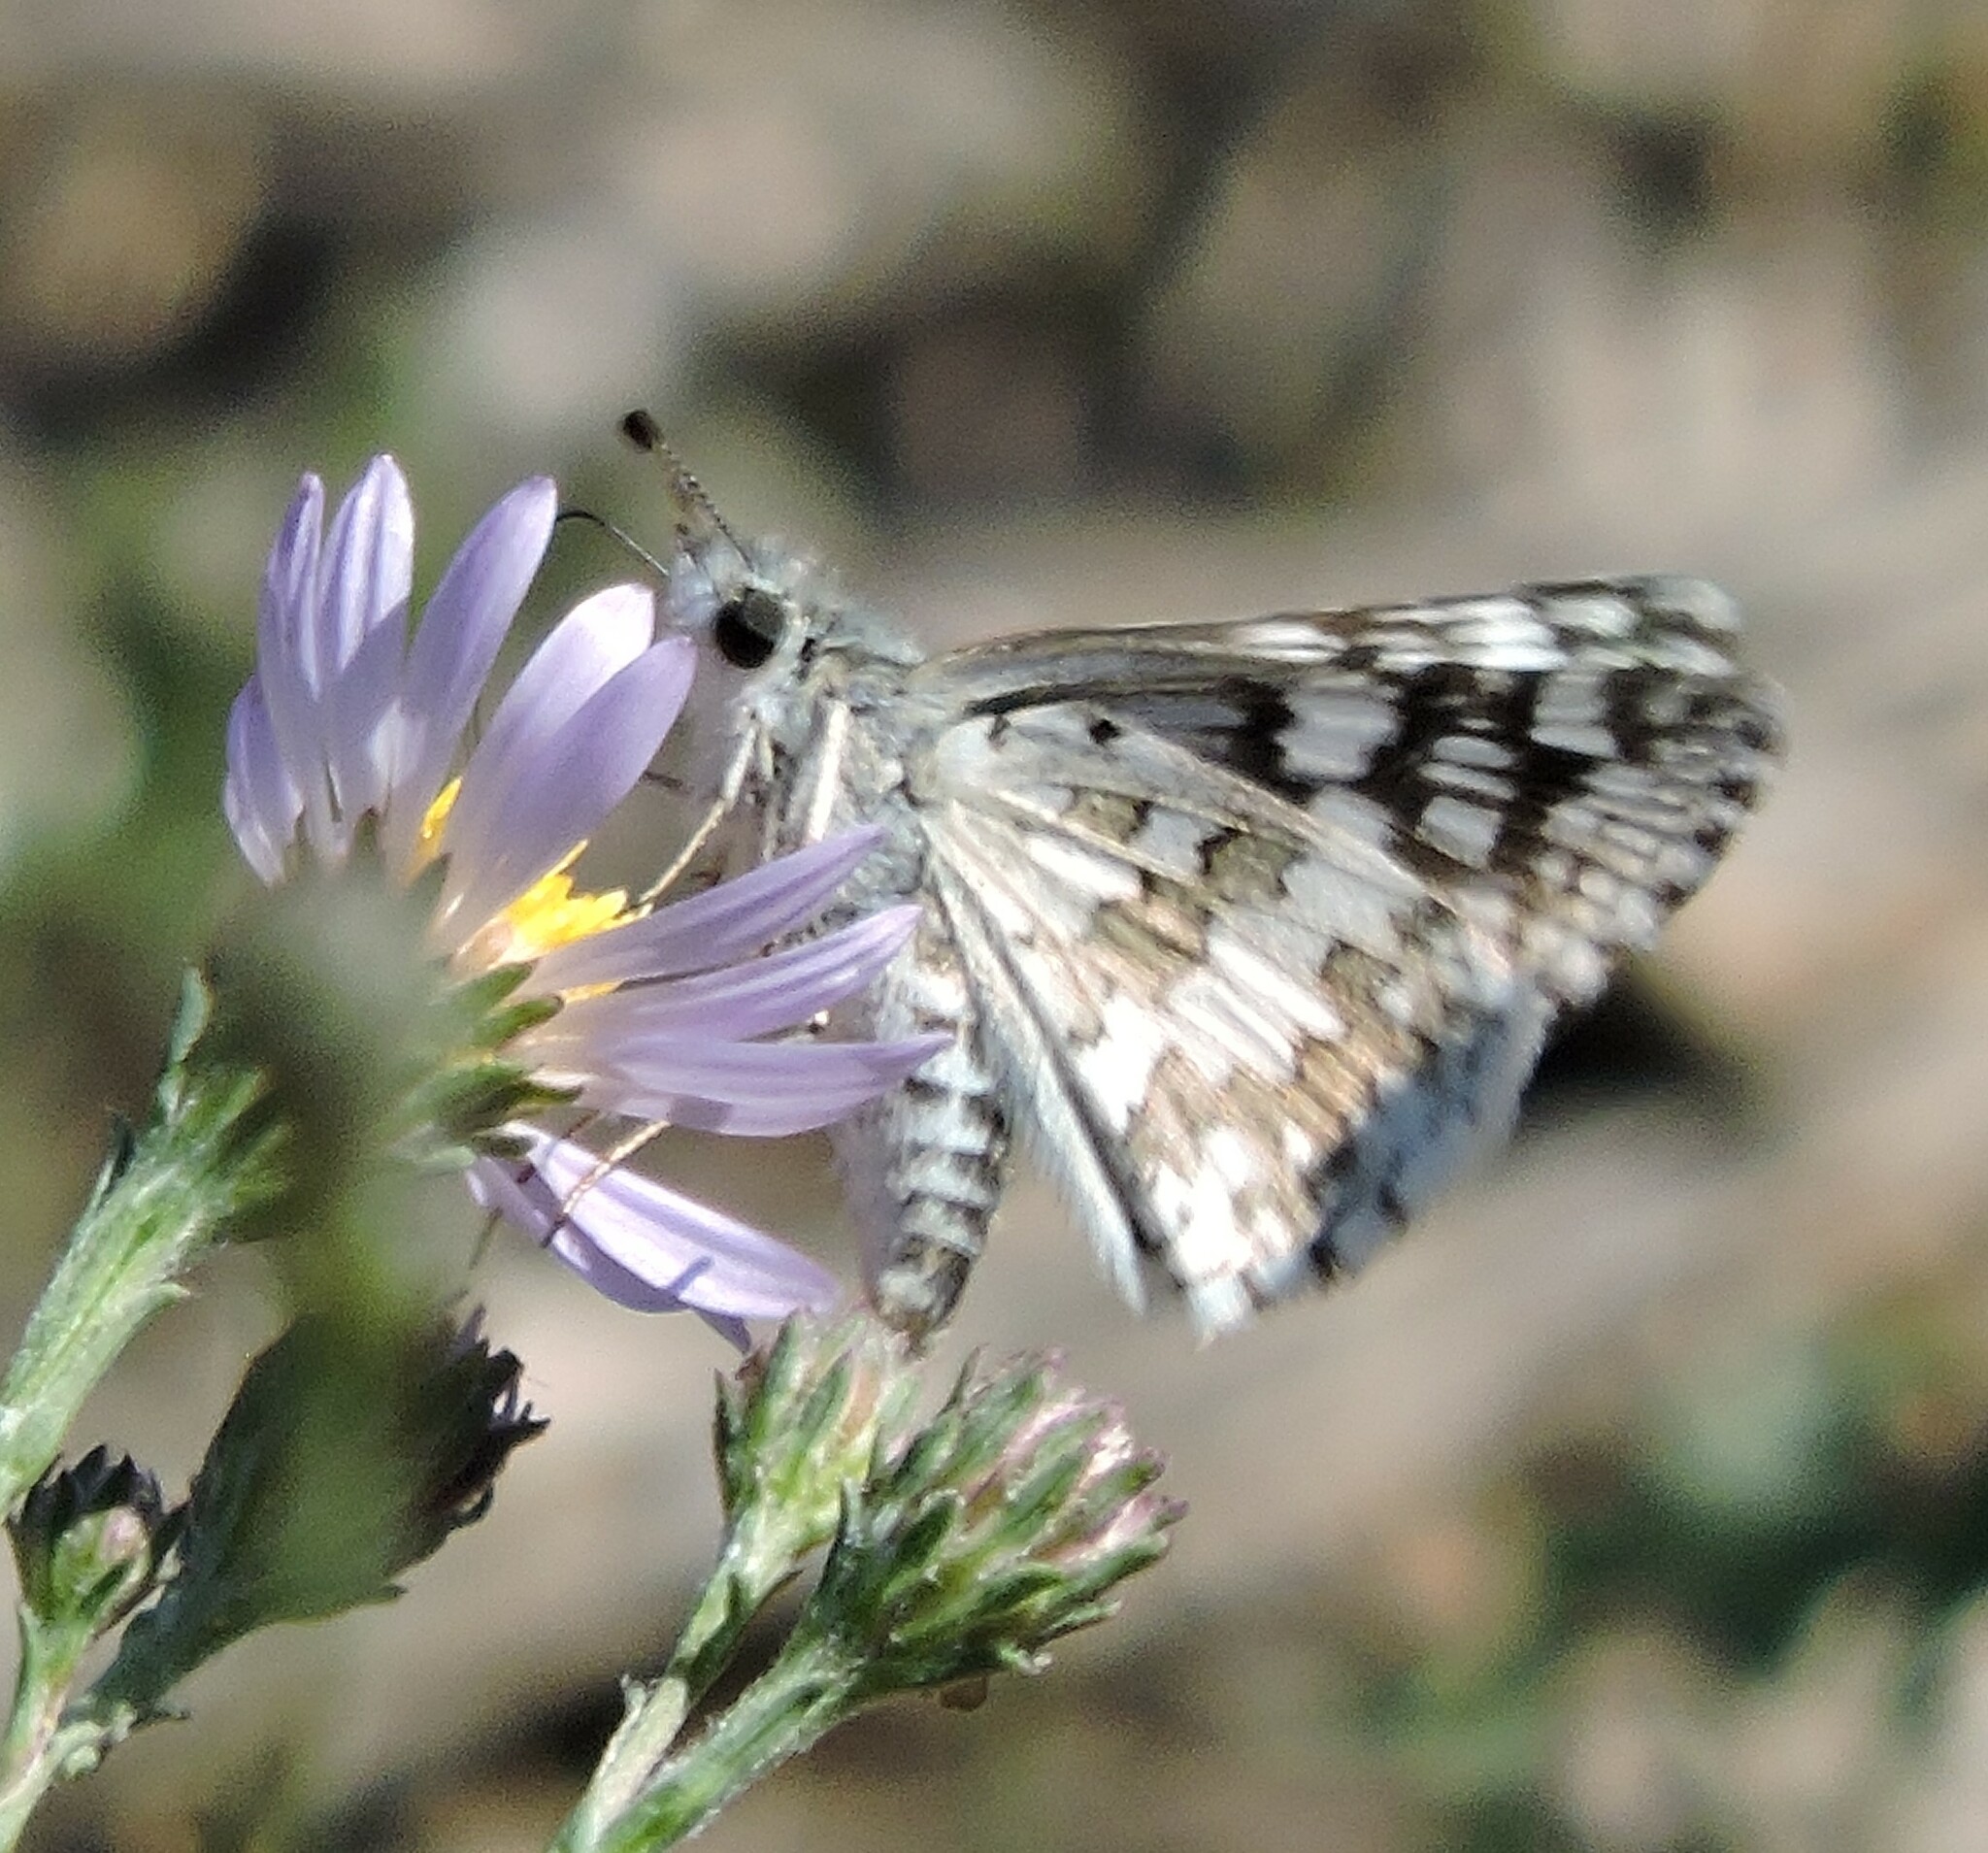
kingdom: Animalia
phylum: Arthropoda
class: Insecta
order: Lepidoptera
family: Hesperiidae
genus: Burnsius
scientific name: Burnsius communis
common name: Common checkered-skipper
